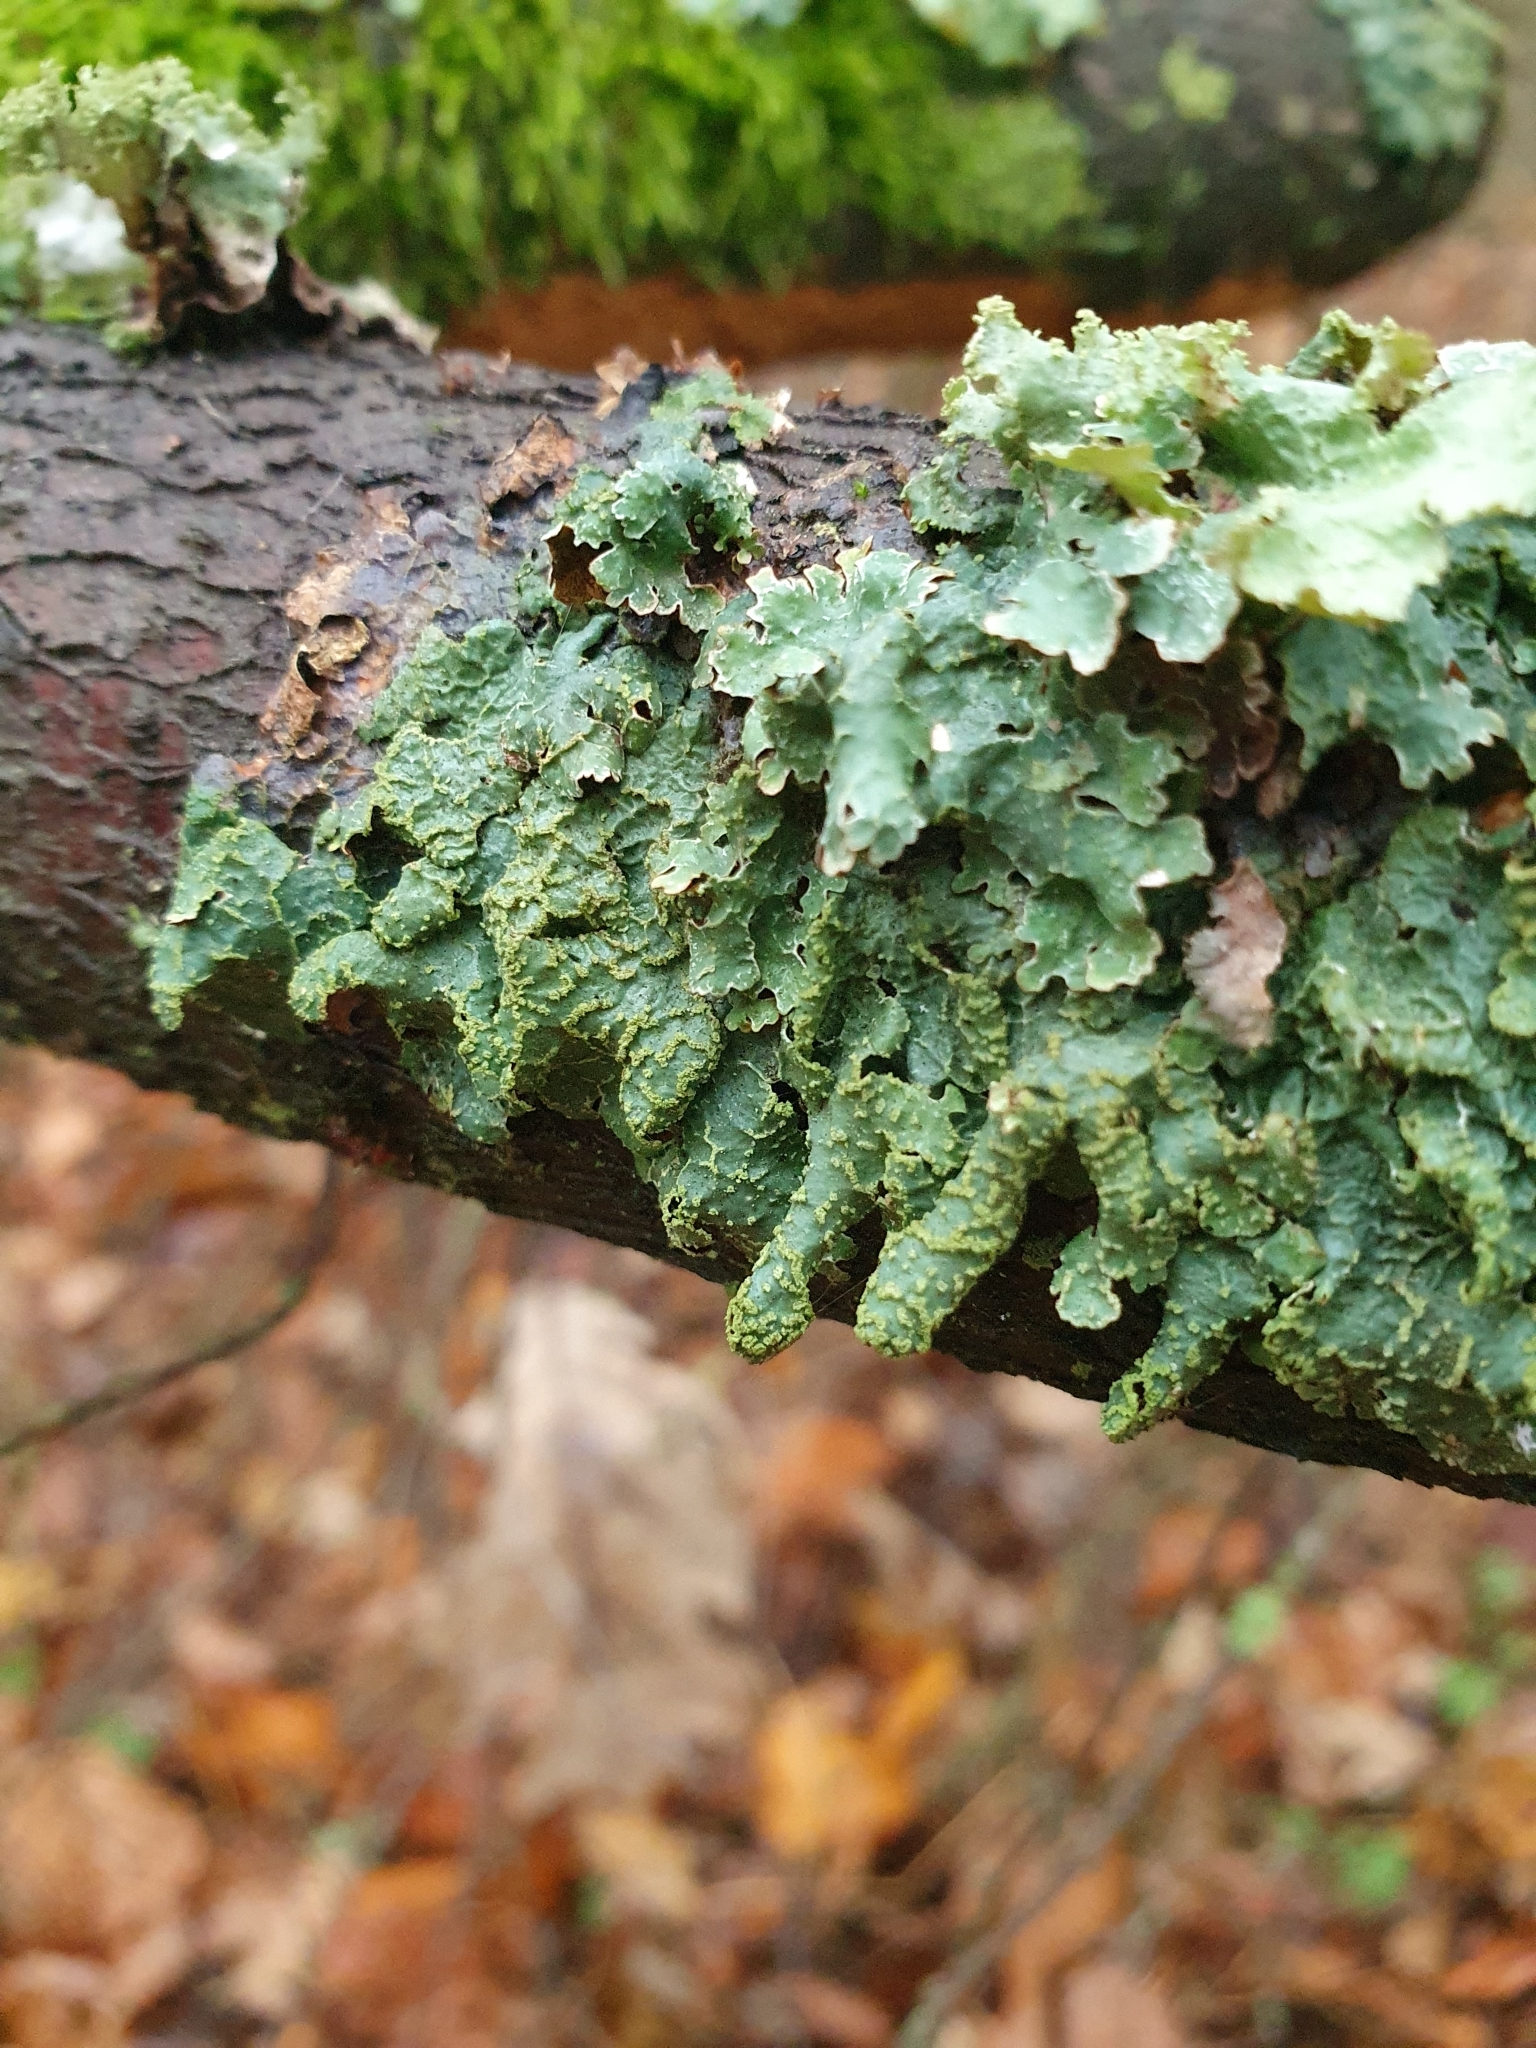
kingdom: Fungi
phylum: Ascomycota
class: Lecanoromycetes
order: Lecanorales
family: Parmeliaceae
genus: Parmelia
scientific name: Parmelia sulcata
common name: Netted shield lichen
